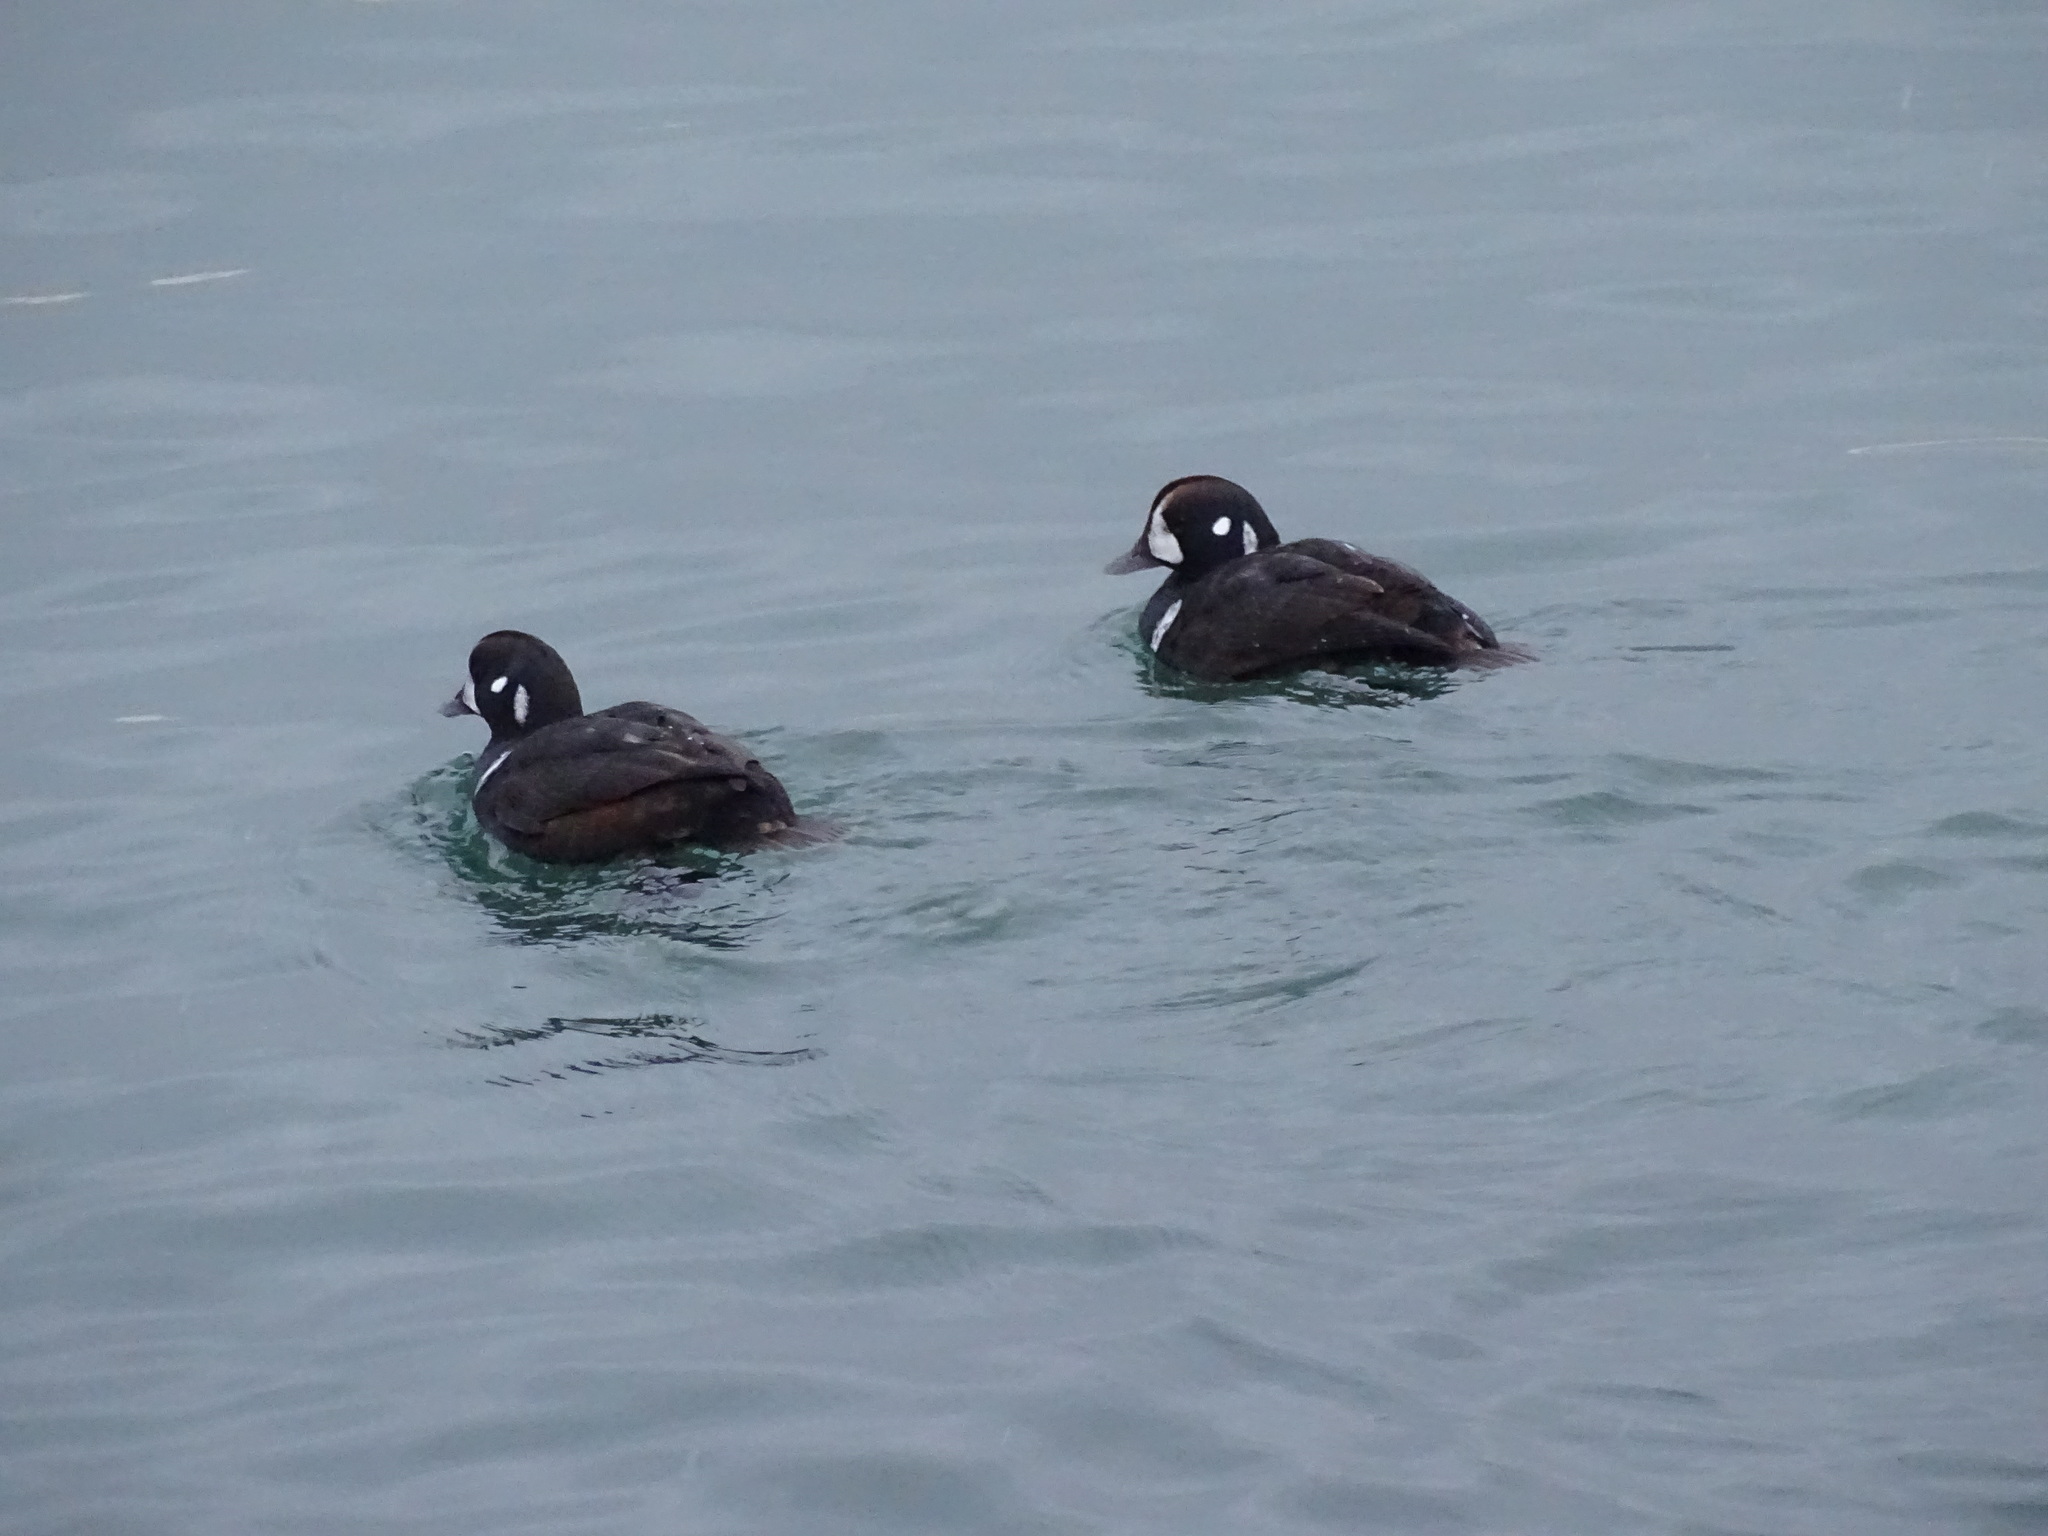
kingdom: Animalia
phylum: Chordata
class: Aves
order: Anseriformes
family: Anatidae
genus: Histrionicus
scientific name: Histrionicus histrionicus
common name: Harlequin duck
